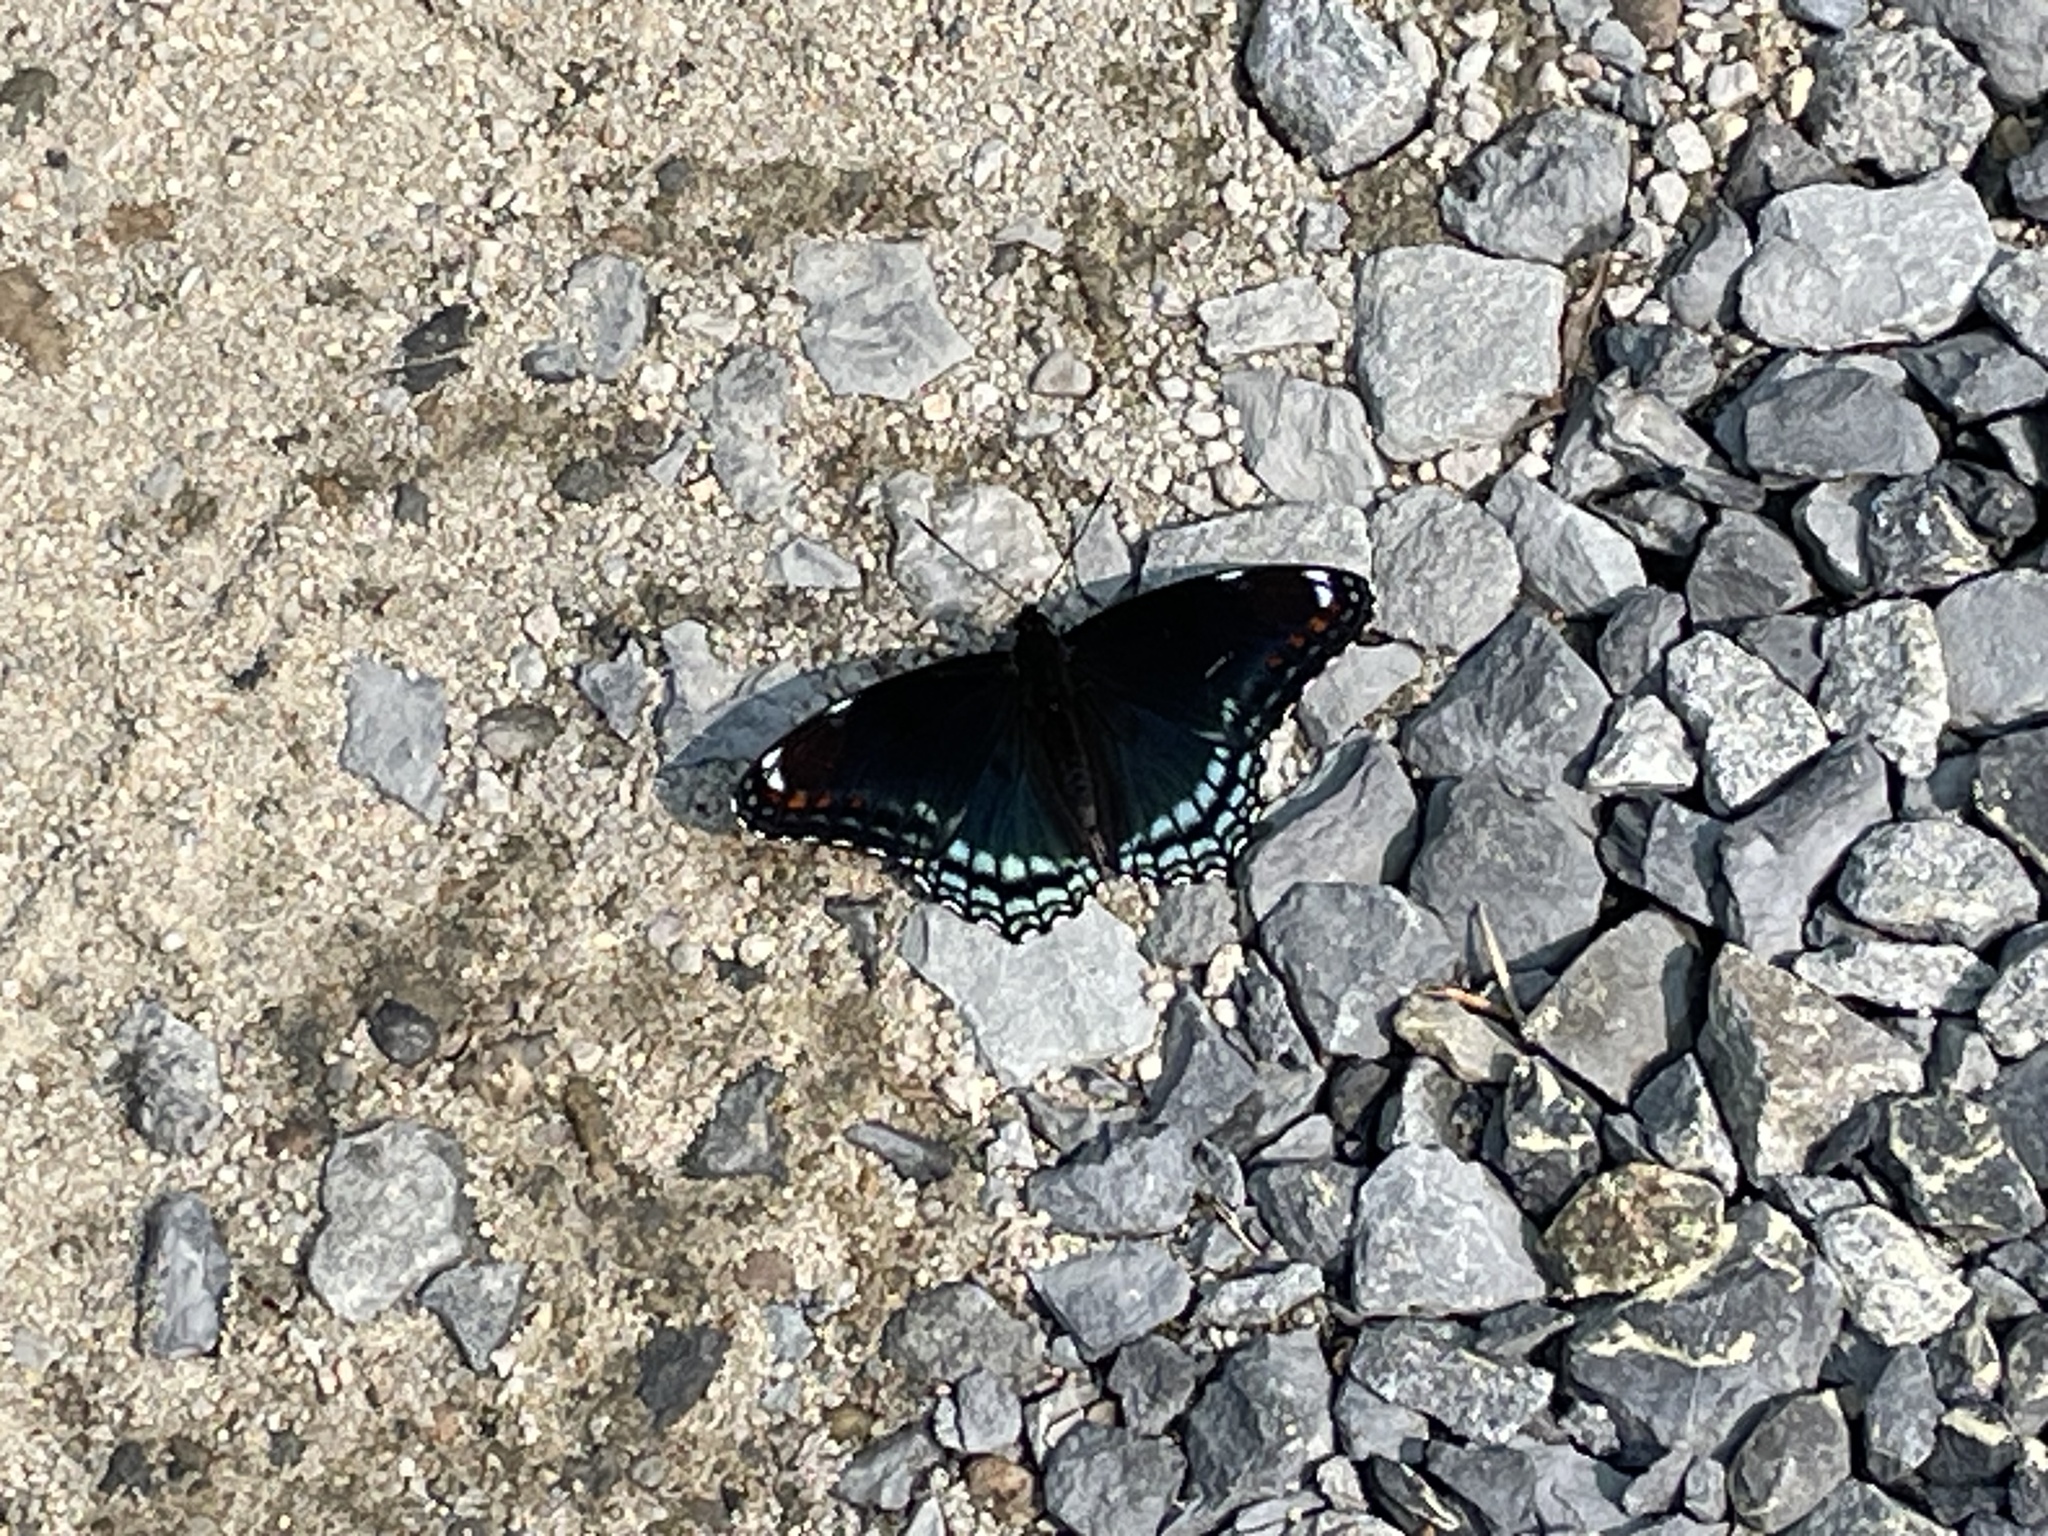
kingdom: Animalia
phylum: Arthropoda
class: Insecta
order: Lepidoptera
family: Nymphalidae
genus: Limenitis
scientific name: Limenitis arthemis
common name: Red-spotted admiral
